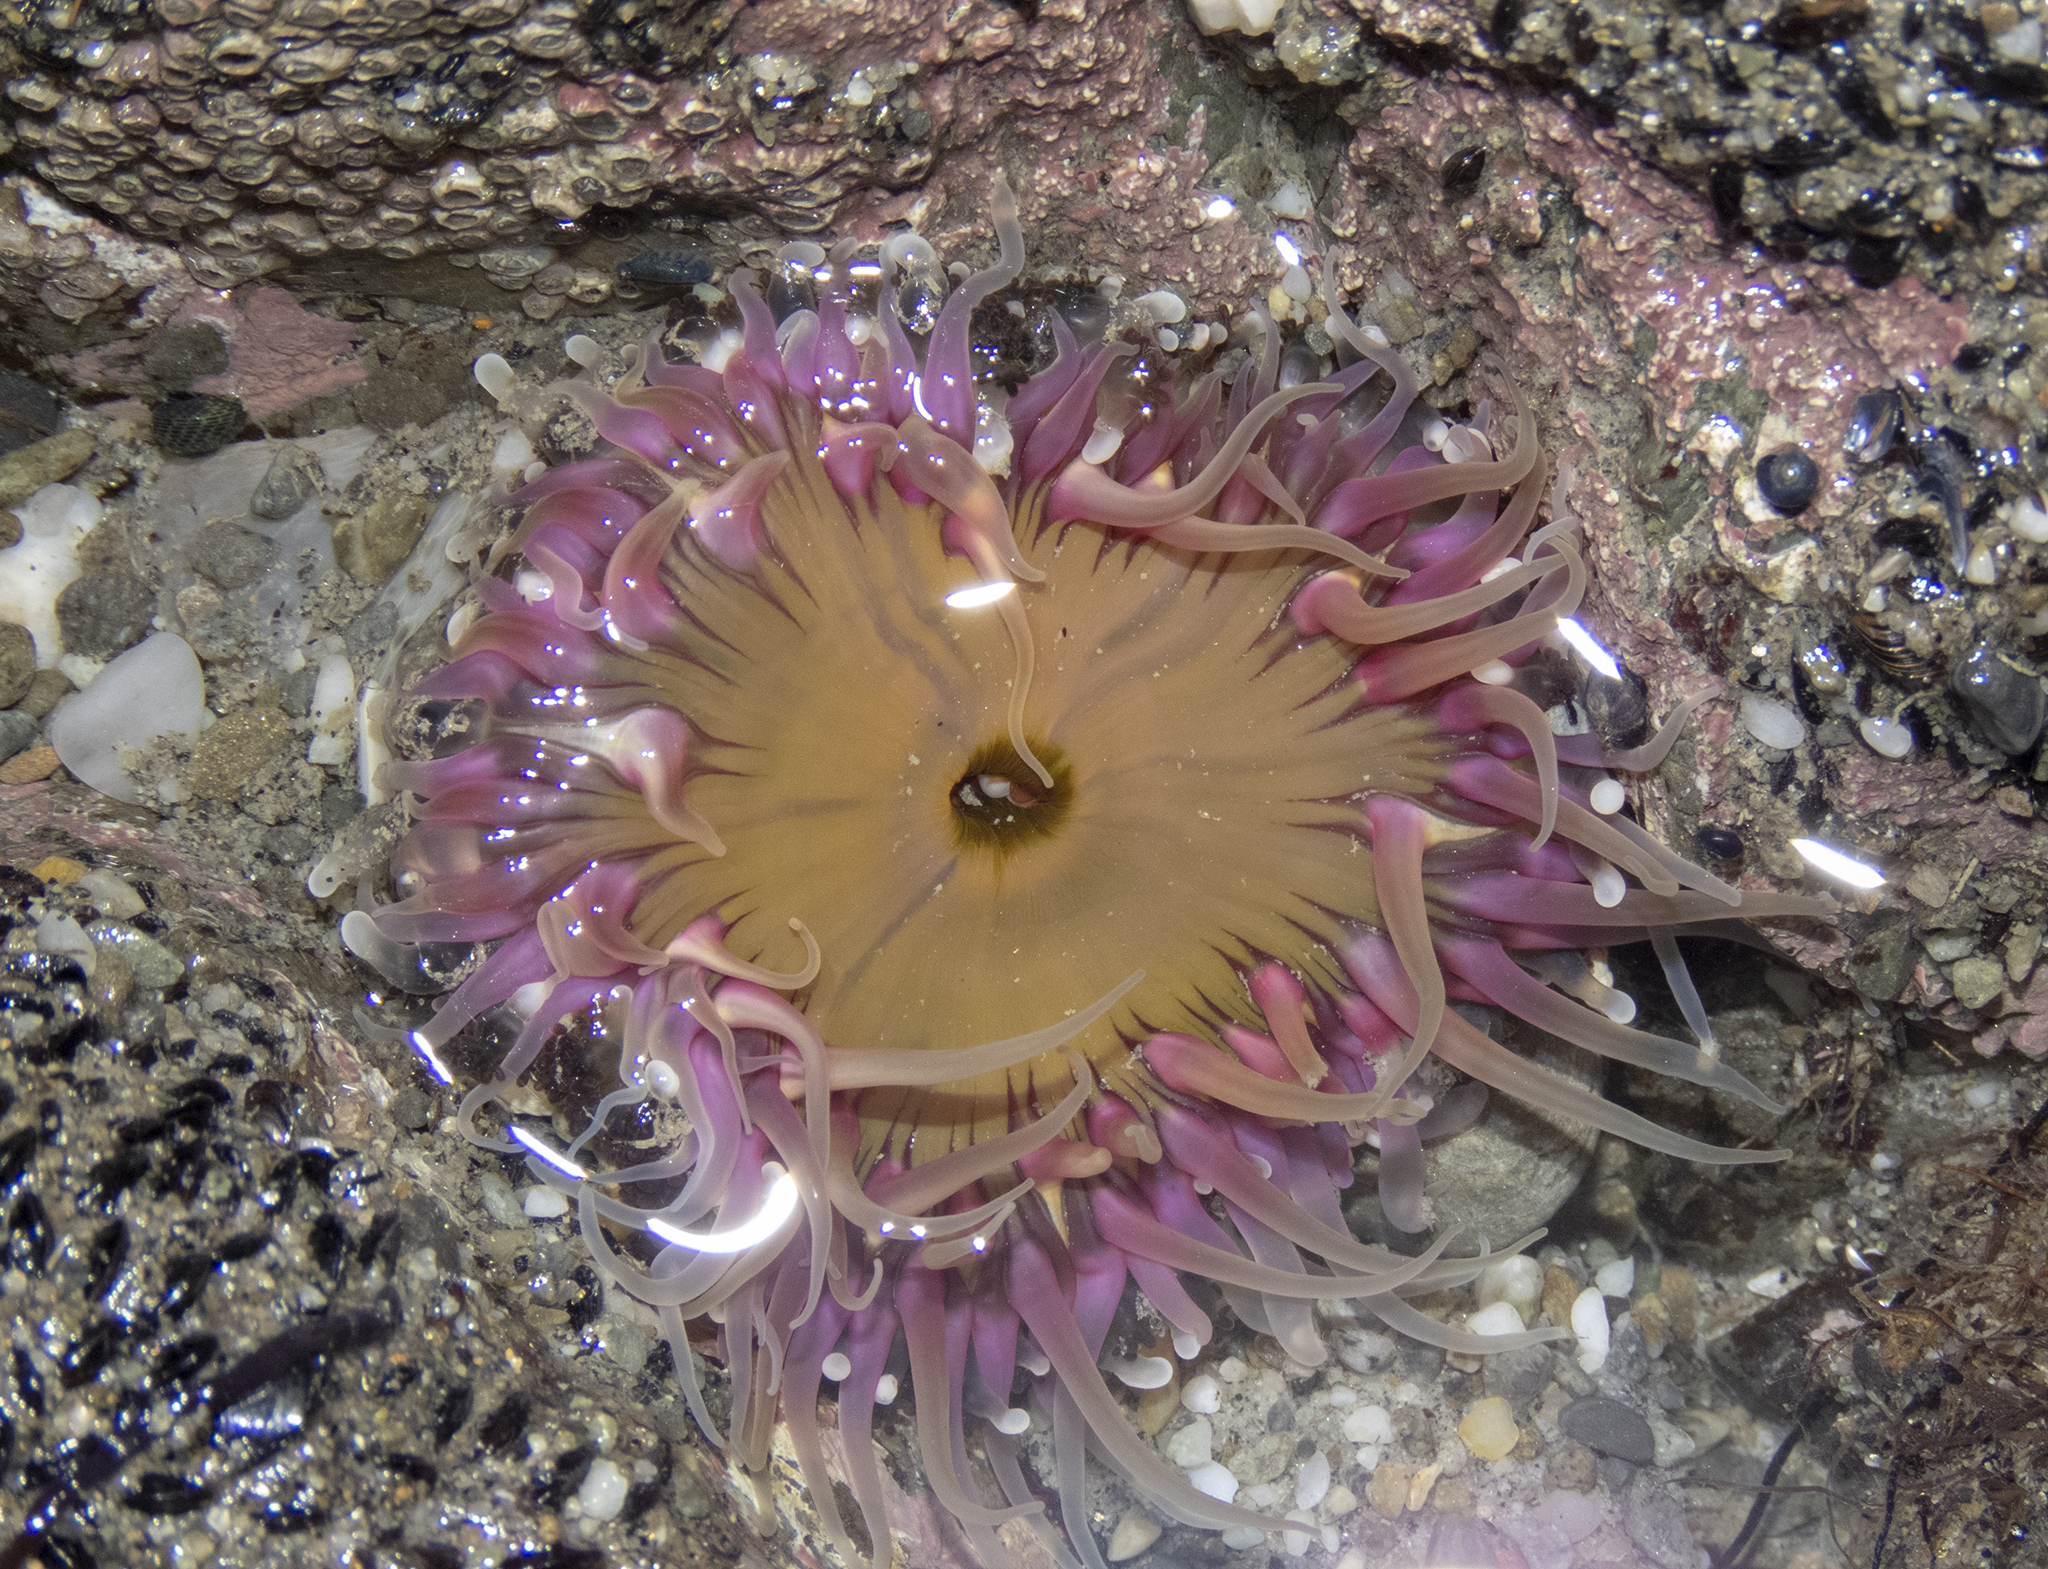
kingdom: Animalia
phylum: Cnidaria
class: Anthozoa
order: Actiniaria
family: Actiniidae
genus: Oulactis
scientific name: Oulactis magna
